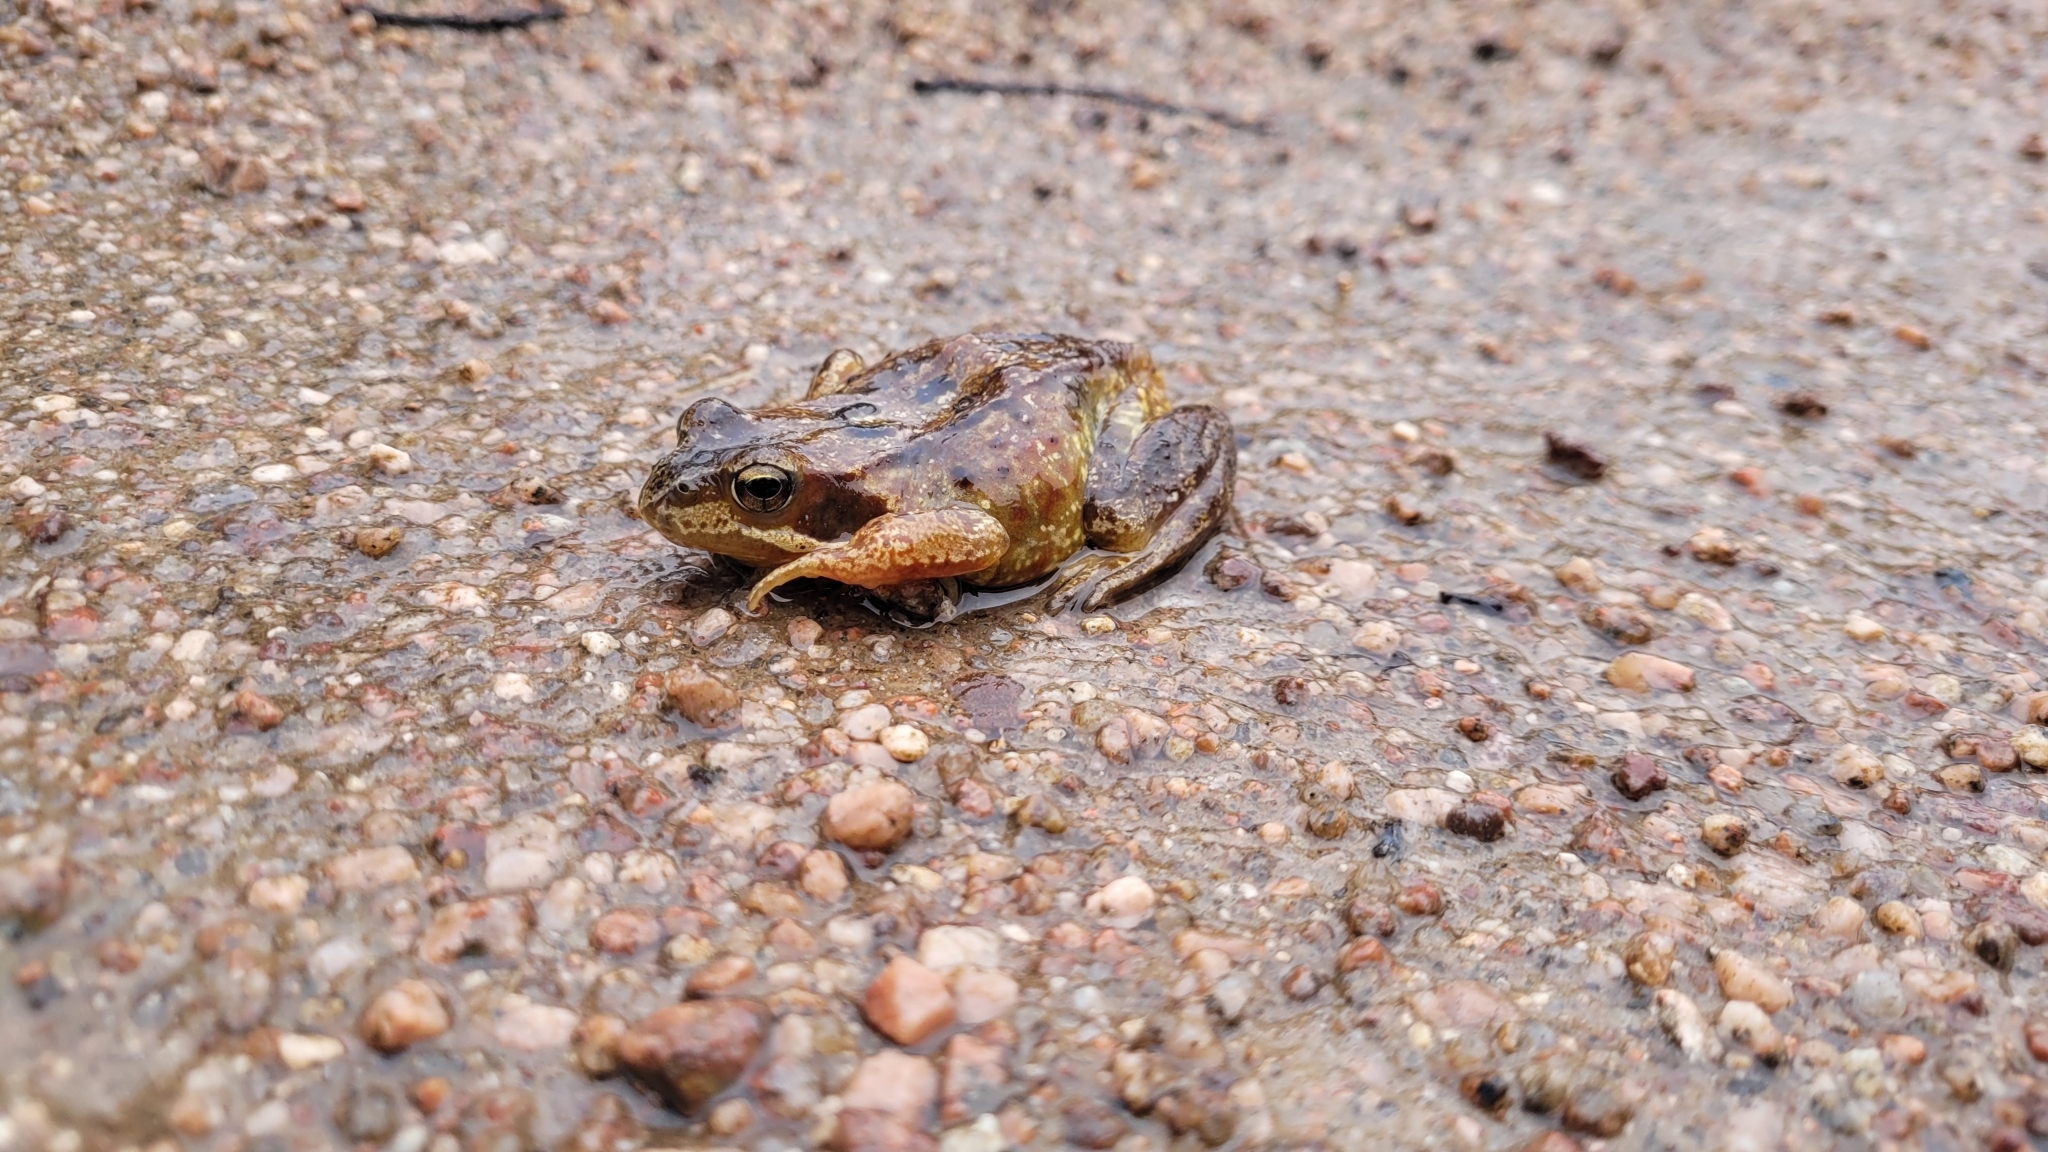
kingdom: Animalia
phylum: Chordata
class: Amphibia
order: Anura
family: Ranidae
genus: Rana
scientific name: Rana temporaria
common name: Common frog
